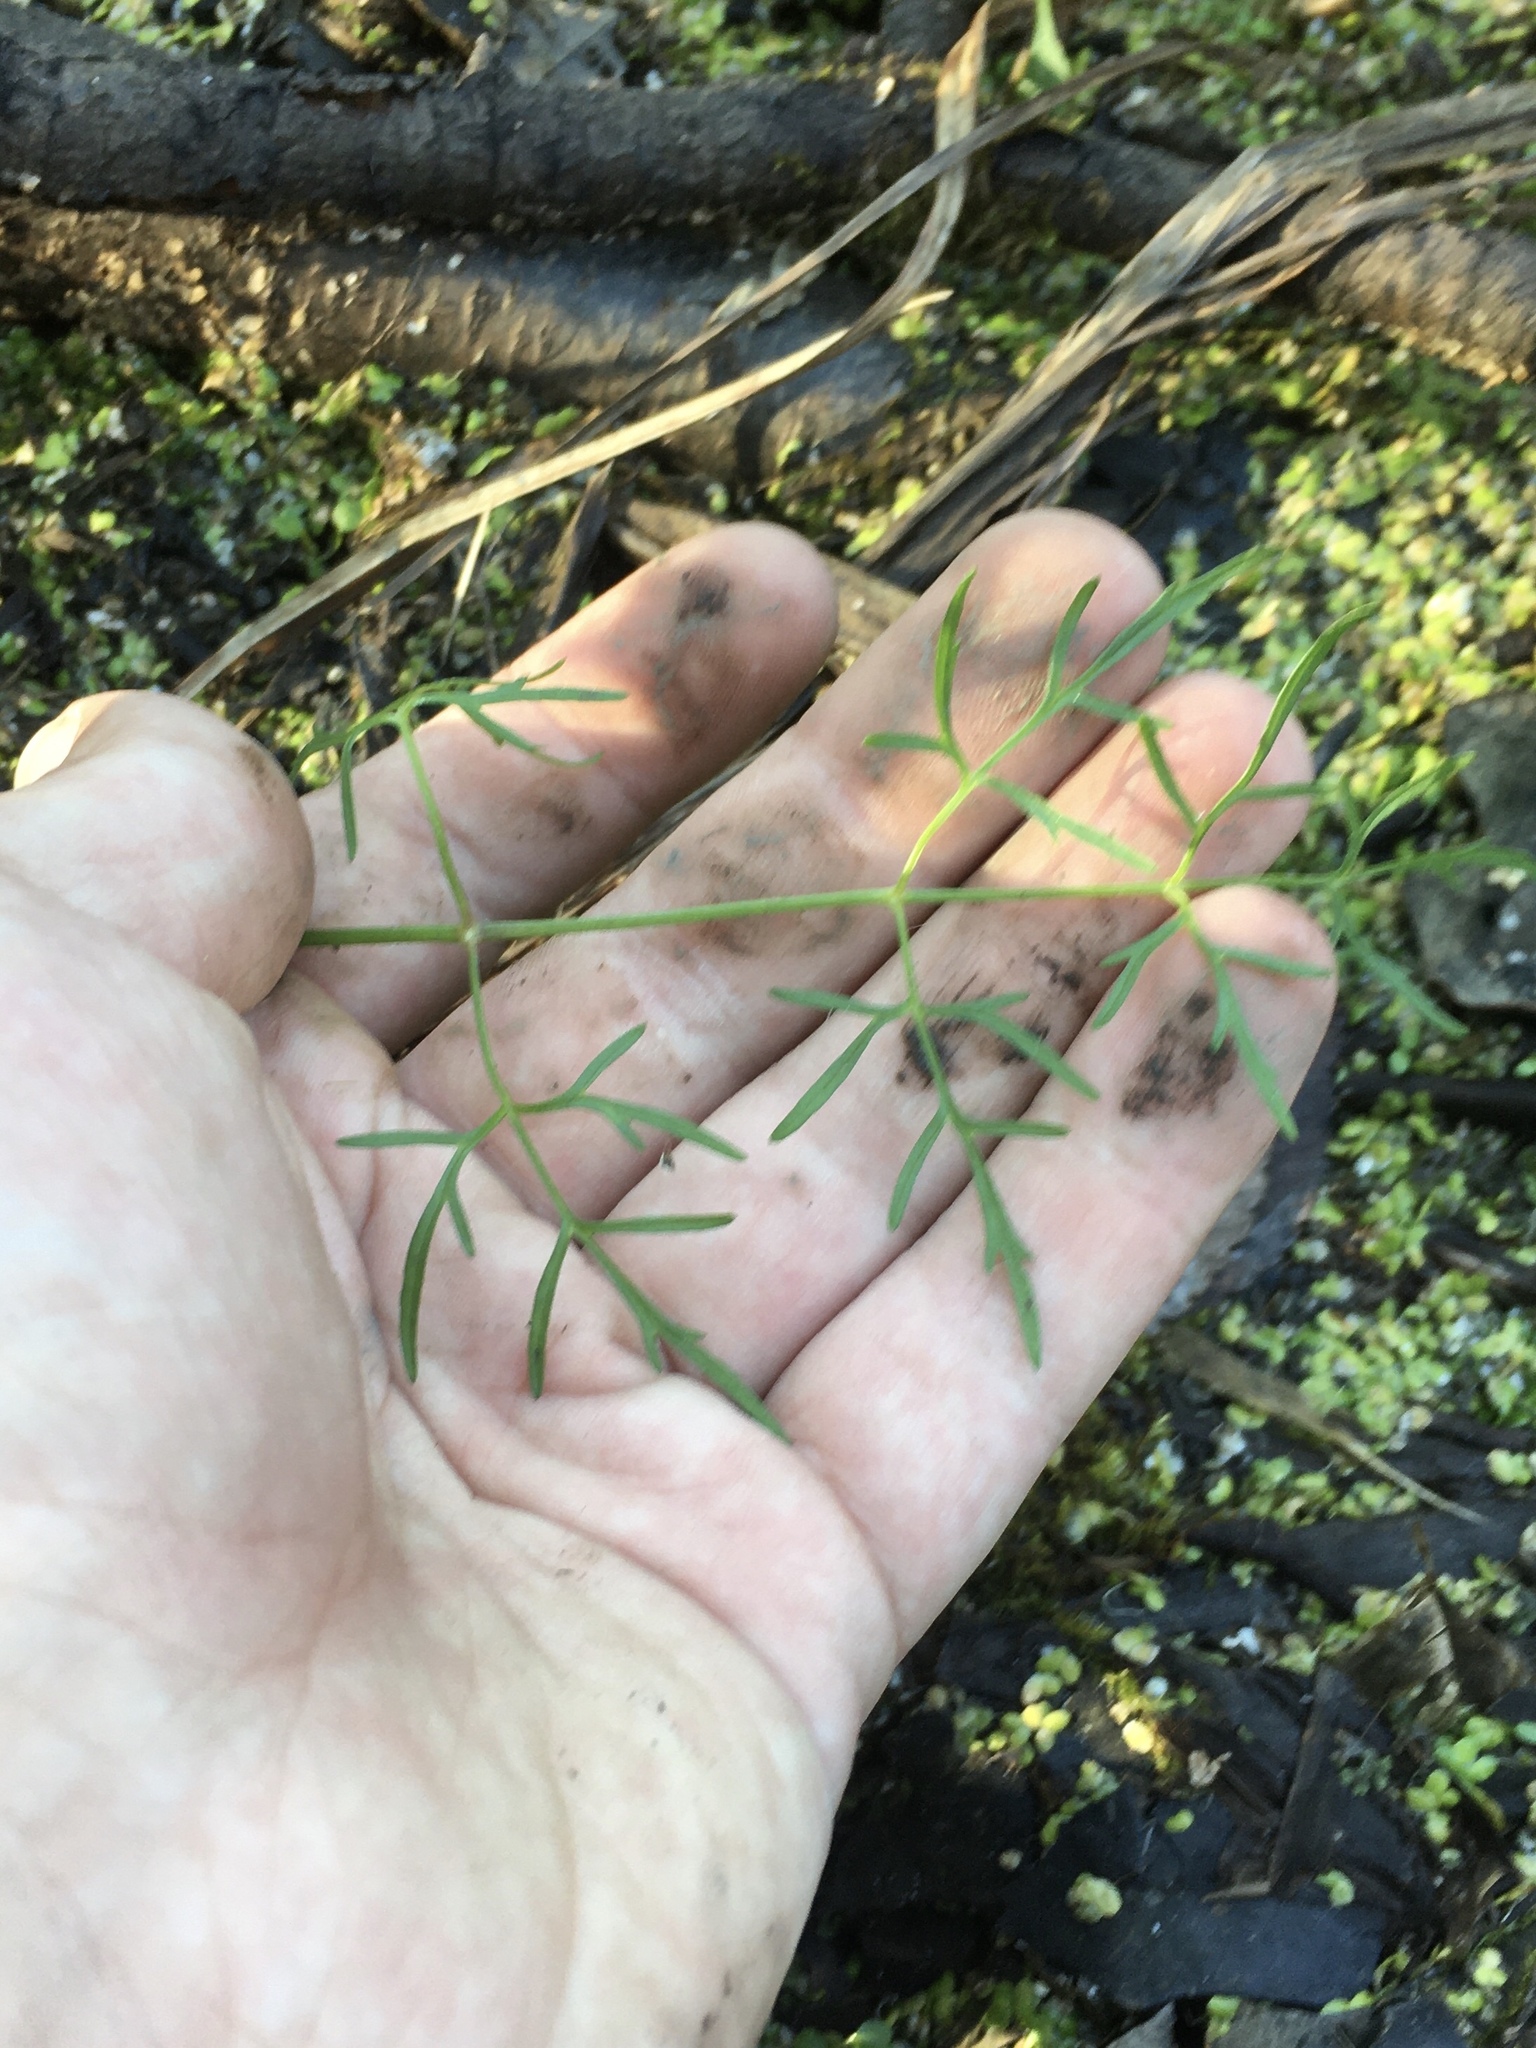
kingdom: Plantae
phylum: Tracheophyta
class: Magnoliopsida
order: Apiales
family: Apiaceae
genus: Cicuta
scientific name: Cicuta bulbifera
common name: Bulb-bearing water-hemlock
